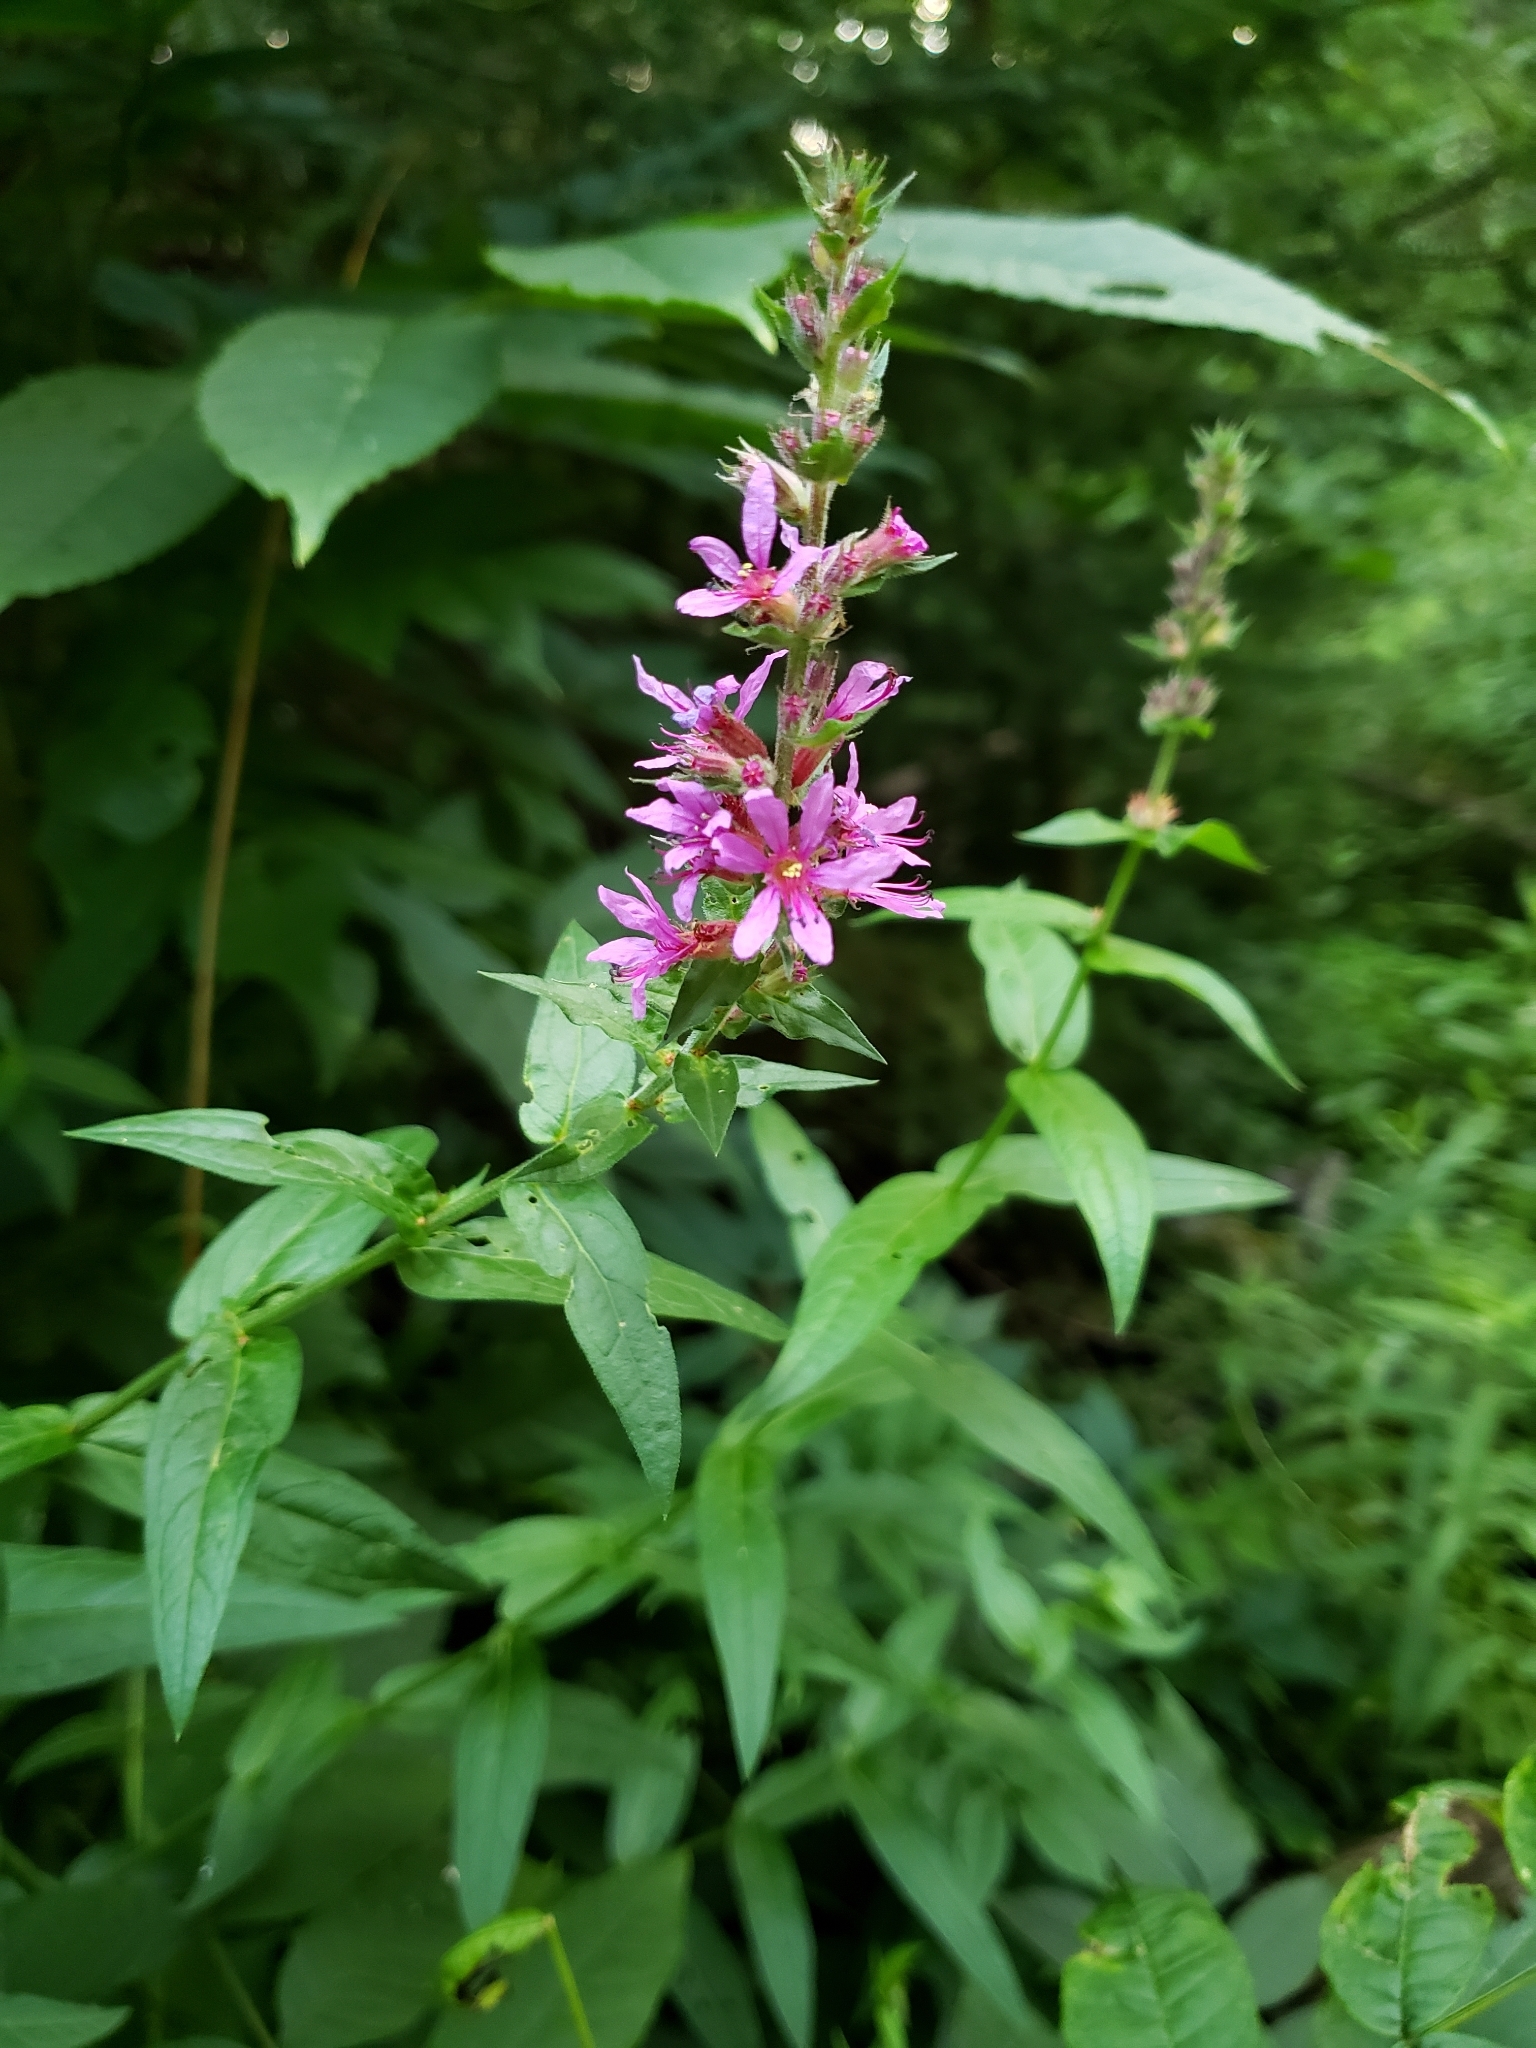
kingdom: Plantae
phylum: Tracheophyta
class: Magnoliopsida
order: Myrtales
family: Lythraceae
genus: Lythrum
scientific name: Lythrum salicaria
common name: Purple loosestrife
